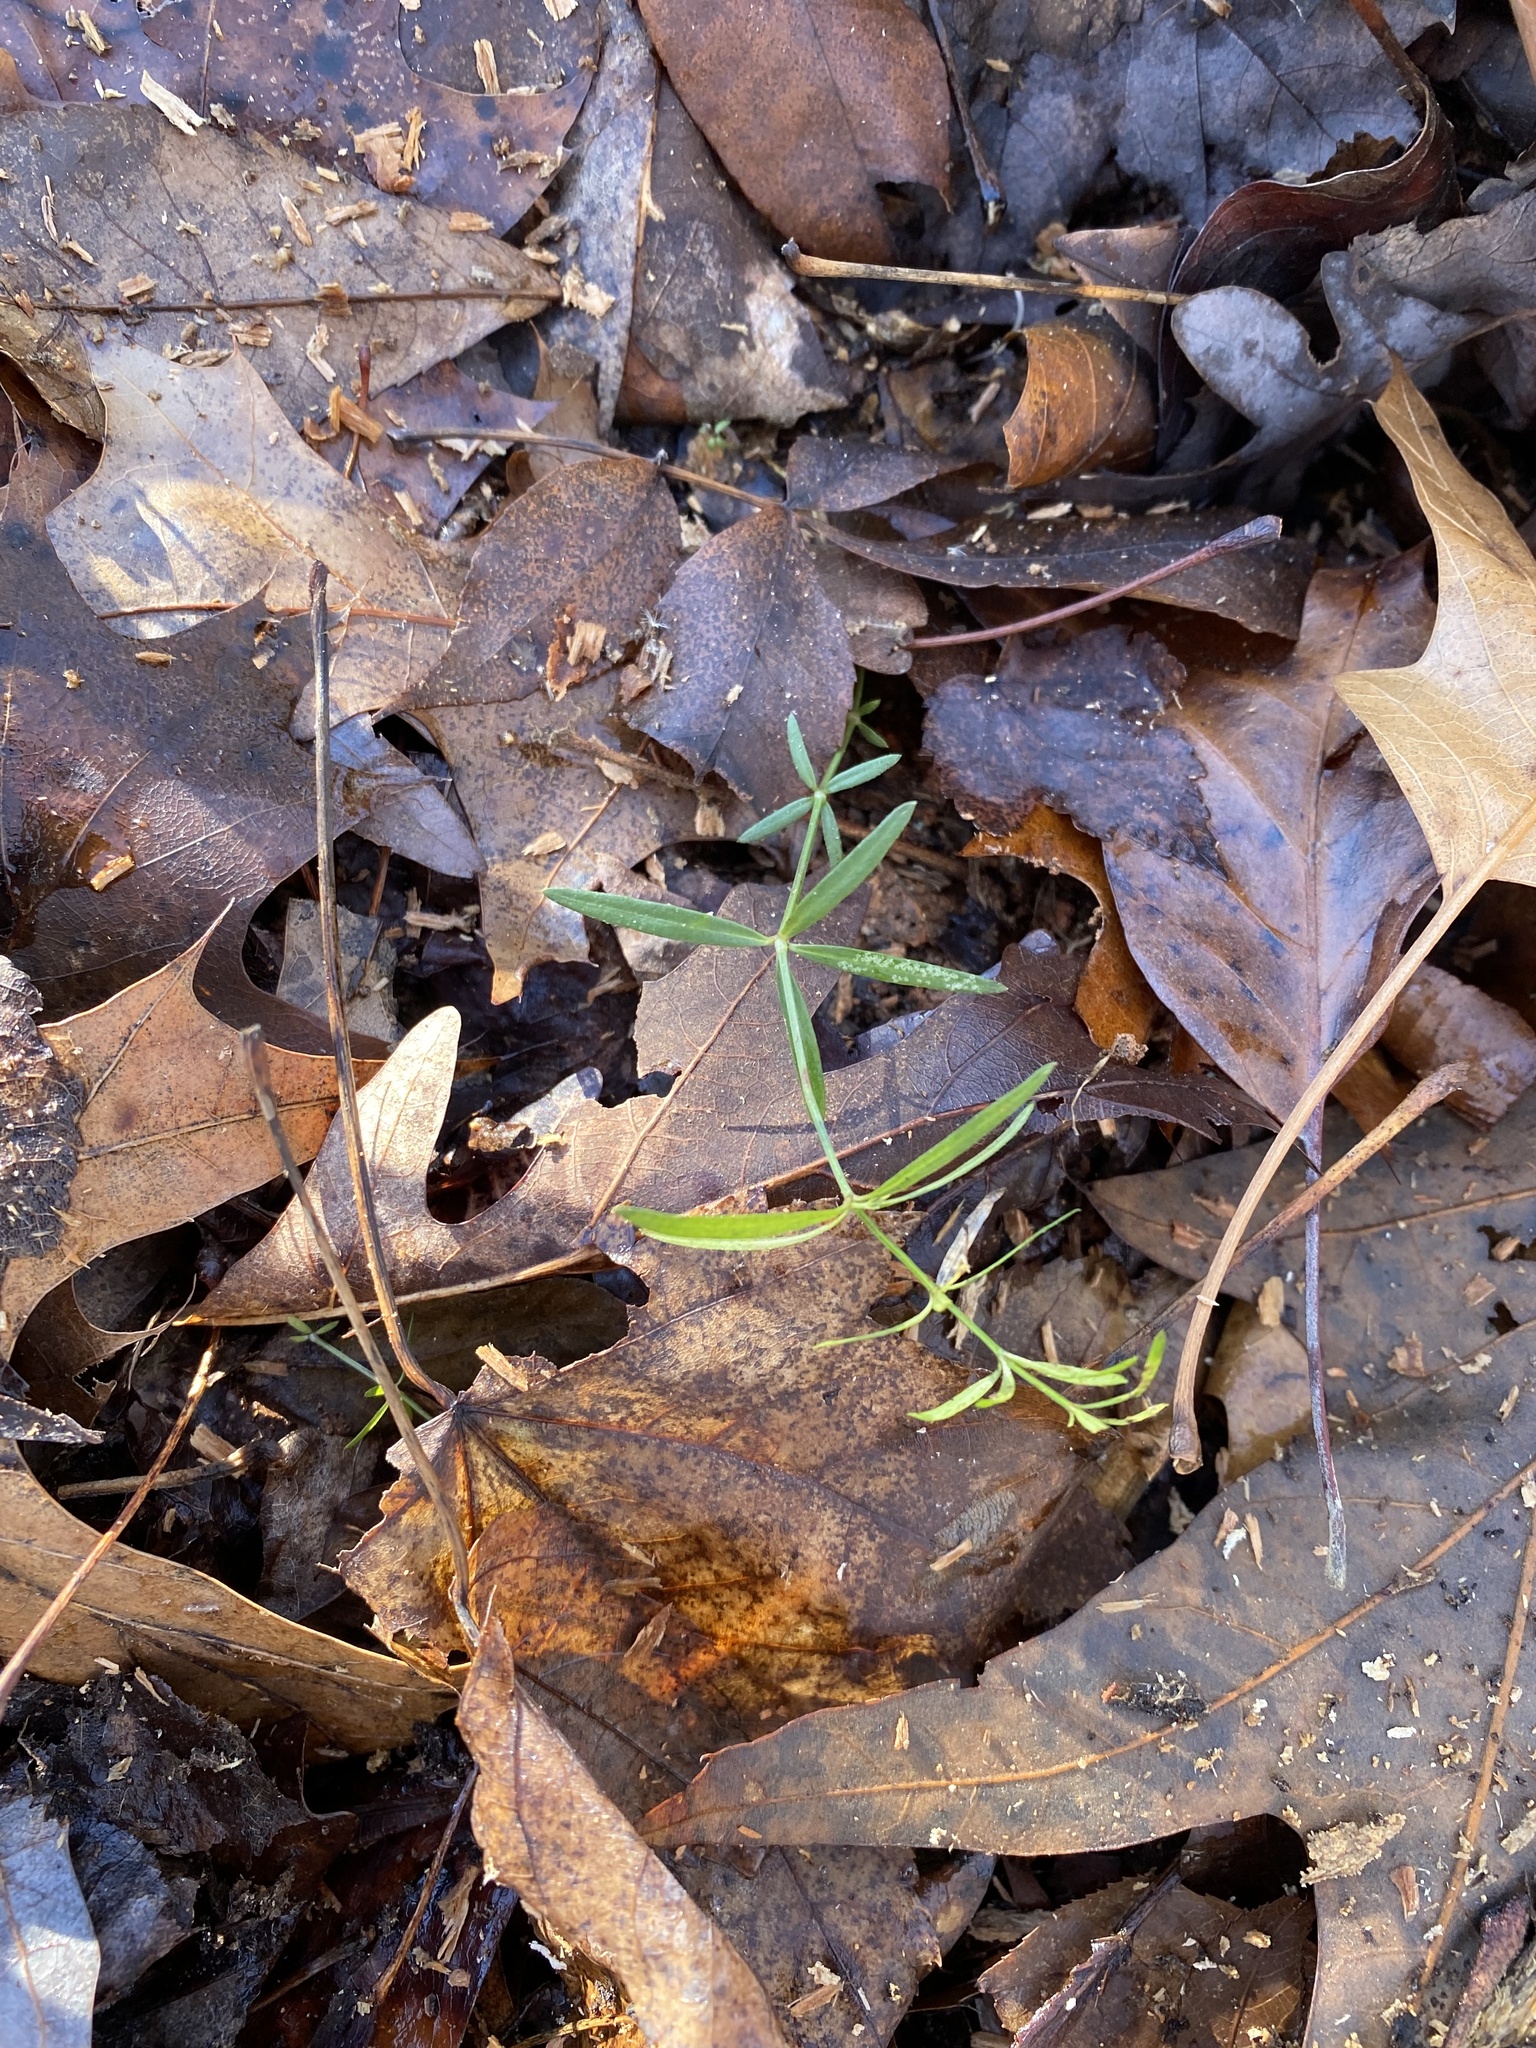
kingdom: Plantae
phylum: Tracheophyta
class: Magnoliopsida
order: Gentianales
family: Rubiaceae
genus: Galium
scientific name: Galium uniflorum
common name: One-flower bedstraw
